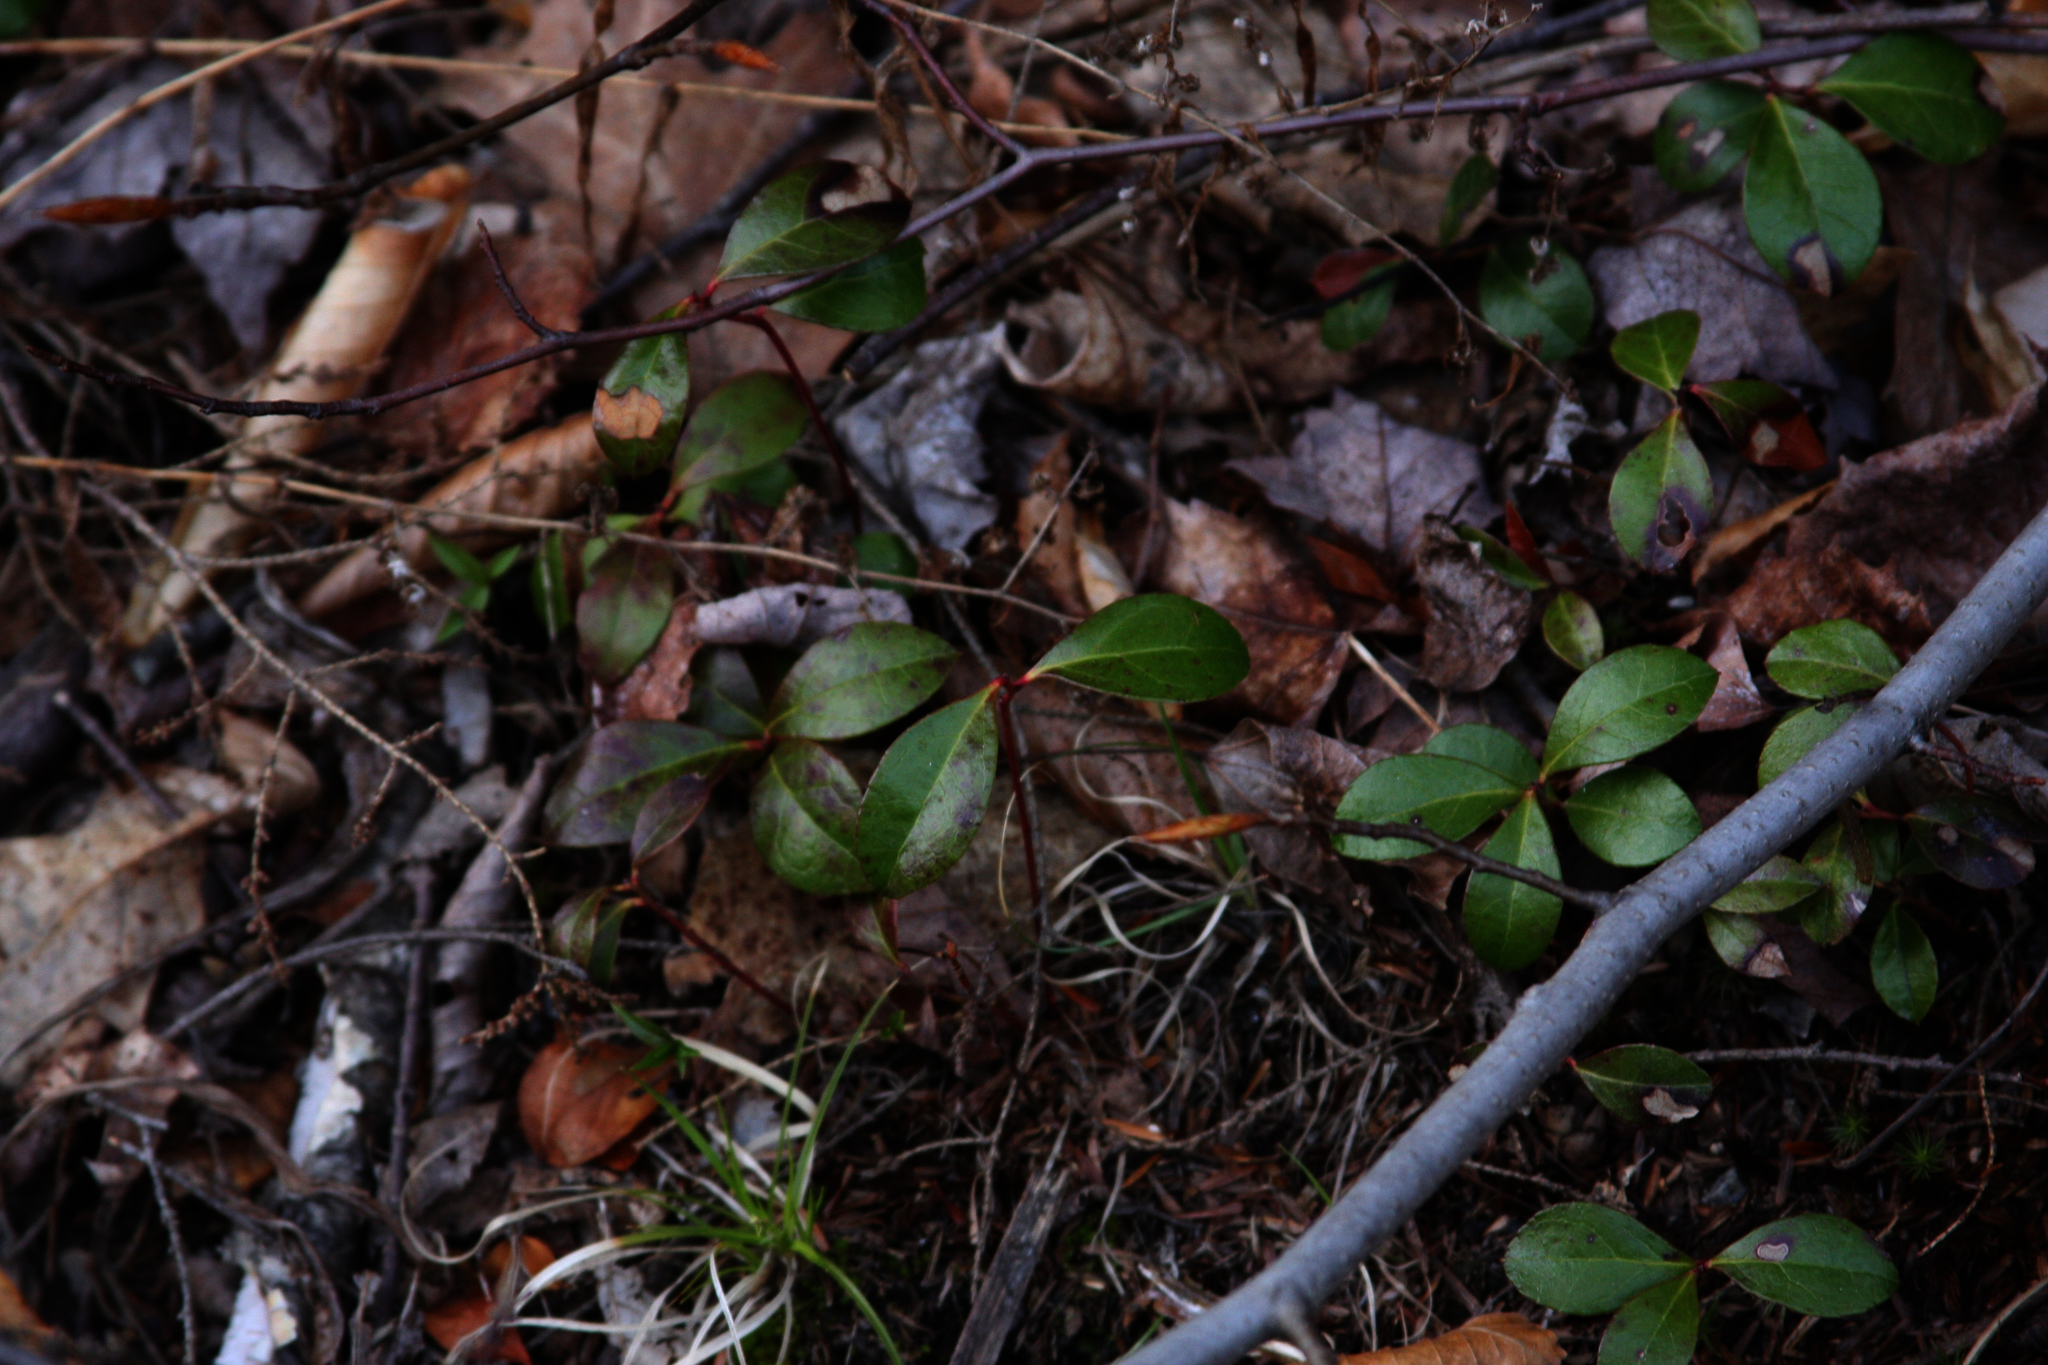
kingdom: Plantae
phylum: Tracheophyta
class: Magnoliopsida
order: Ericales
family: Ericaceae
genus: Gaultheria
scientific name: Gaultheria procumbens
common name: Checkerberry
